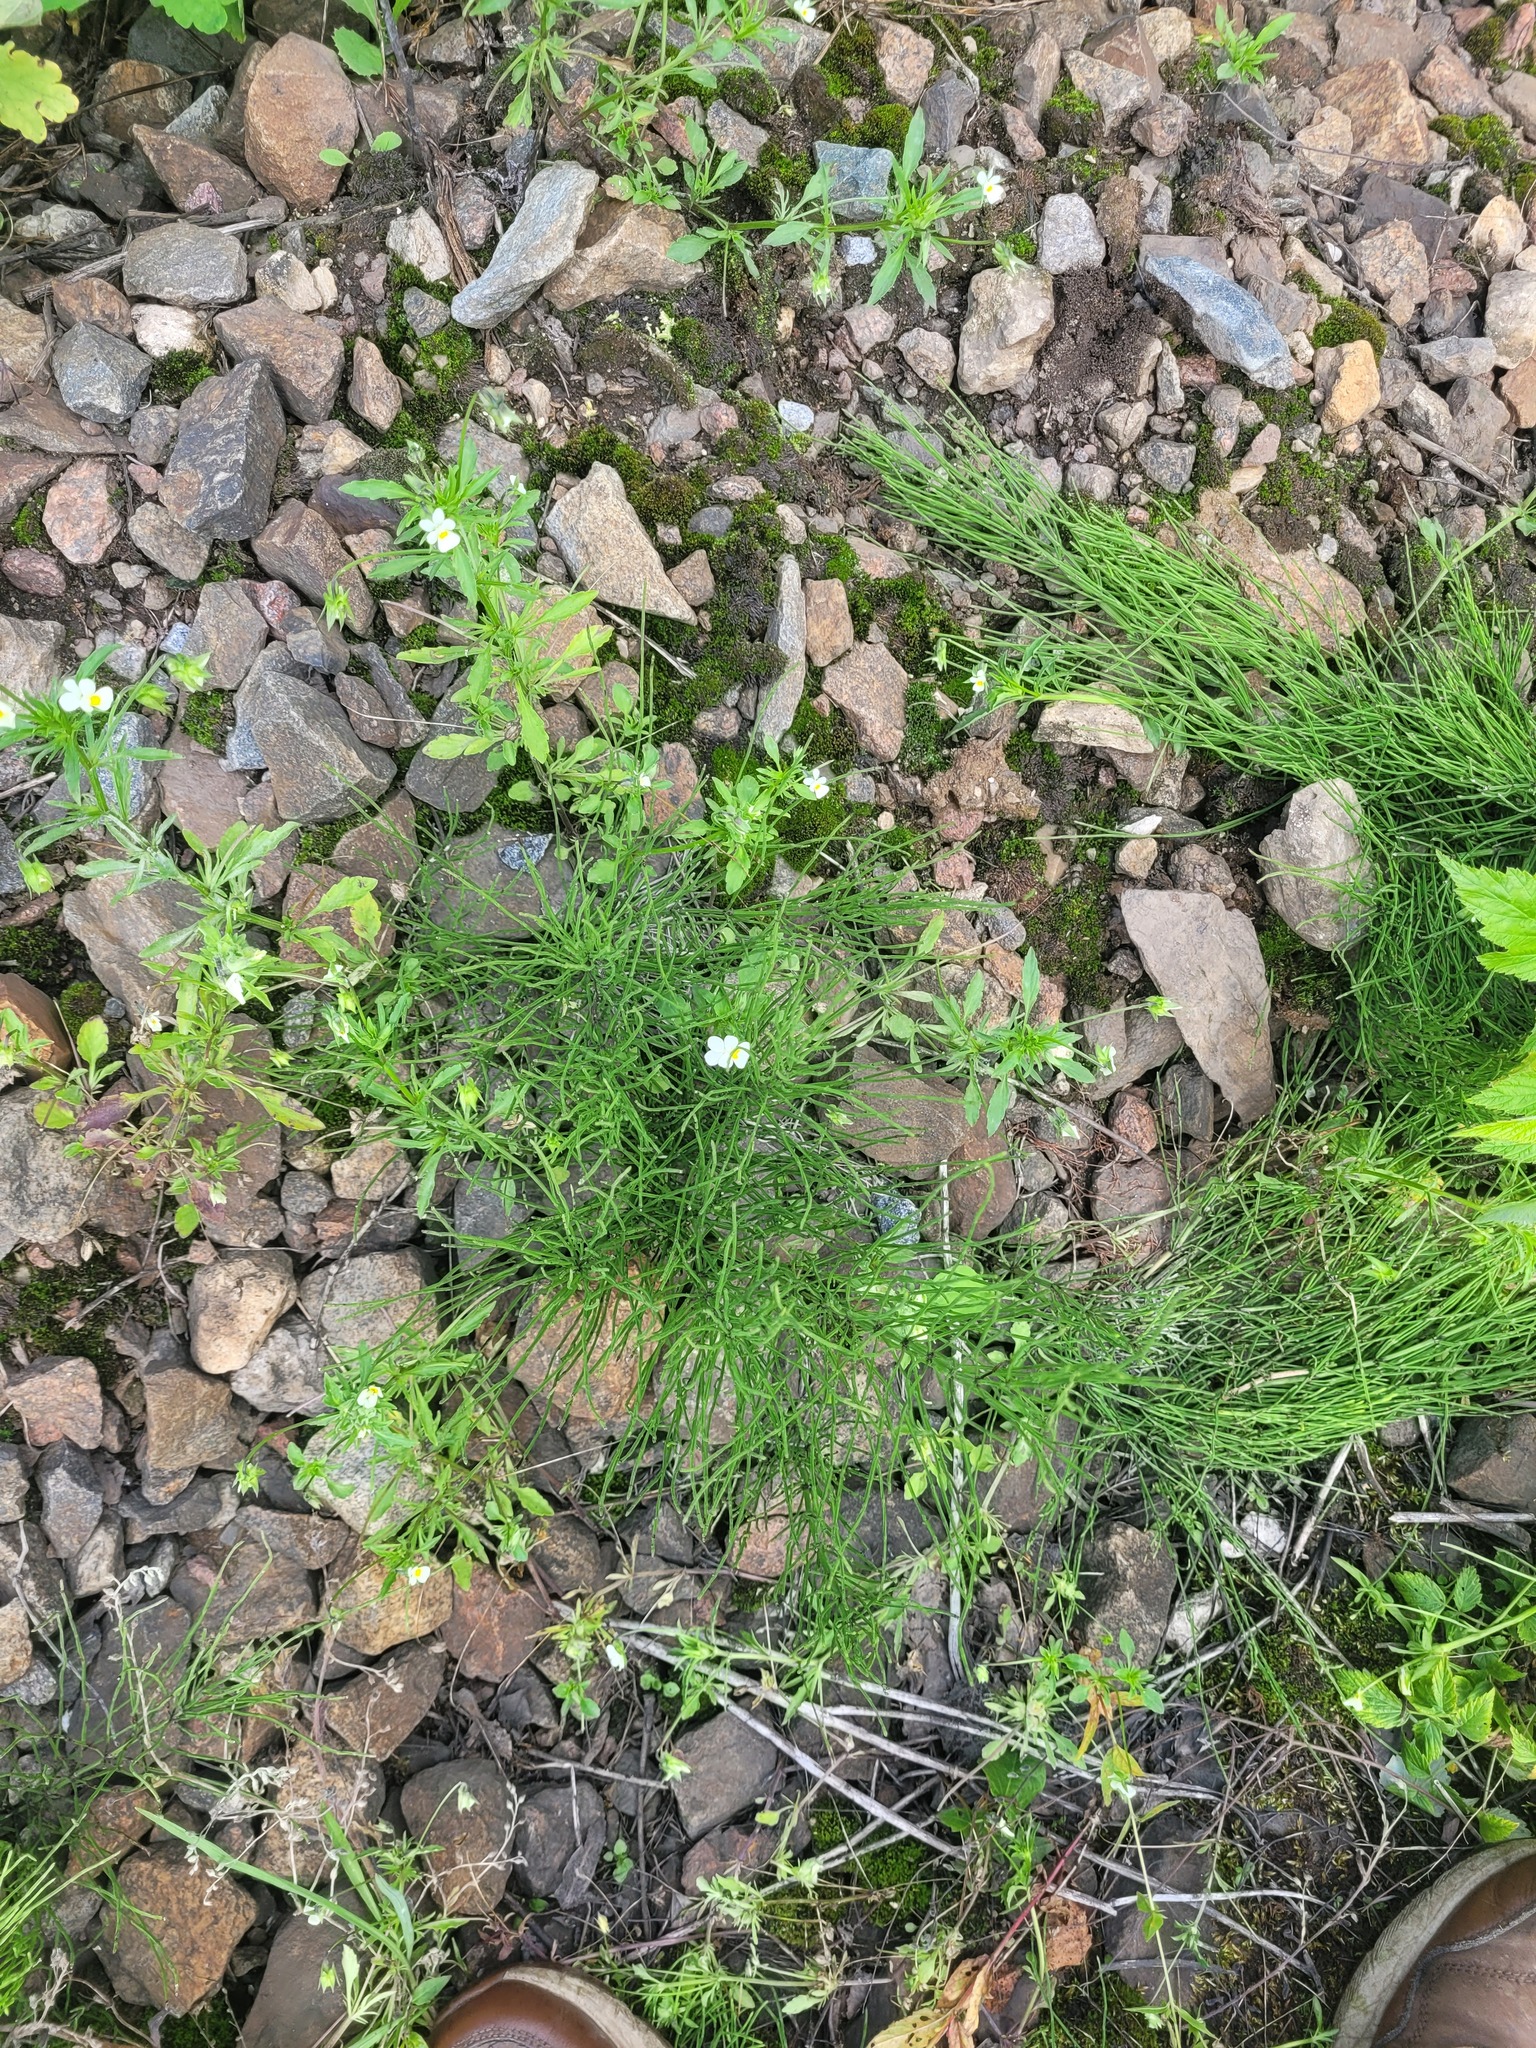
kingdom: Plantae
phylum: Tracheophyta
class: Polypodiopsida
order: Equisetales
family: Equisetaceae
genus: Equisetum
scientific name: Equisetum arvense
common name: Field horsetail
